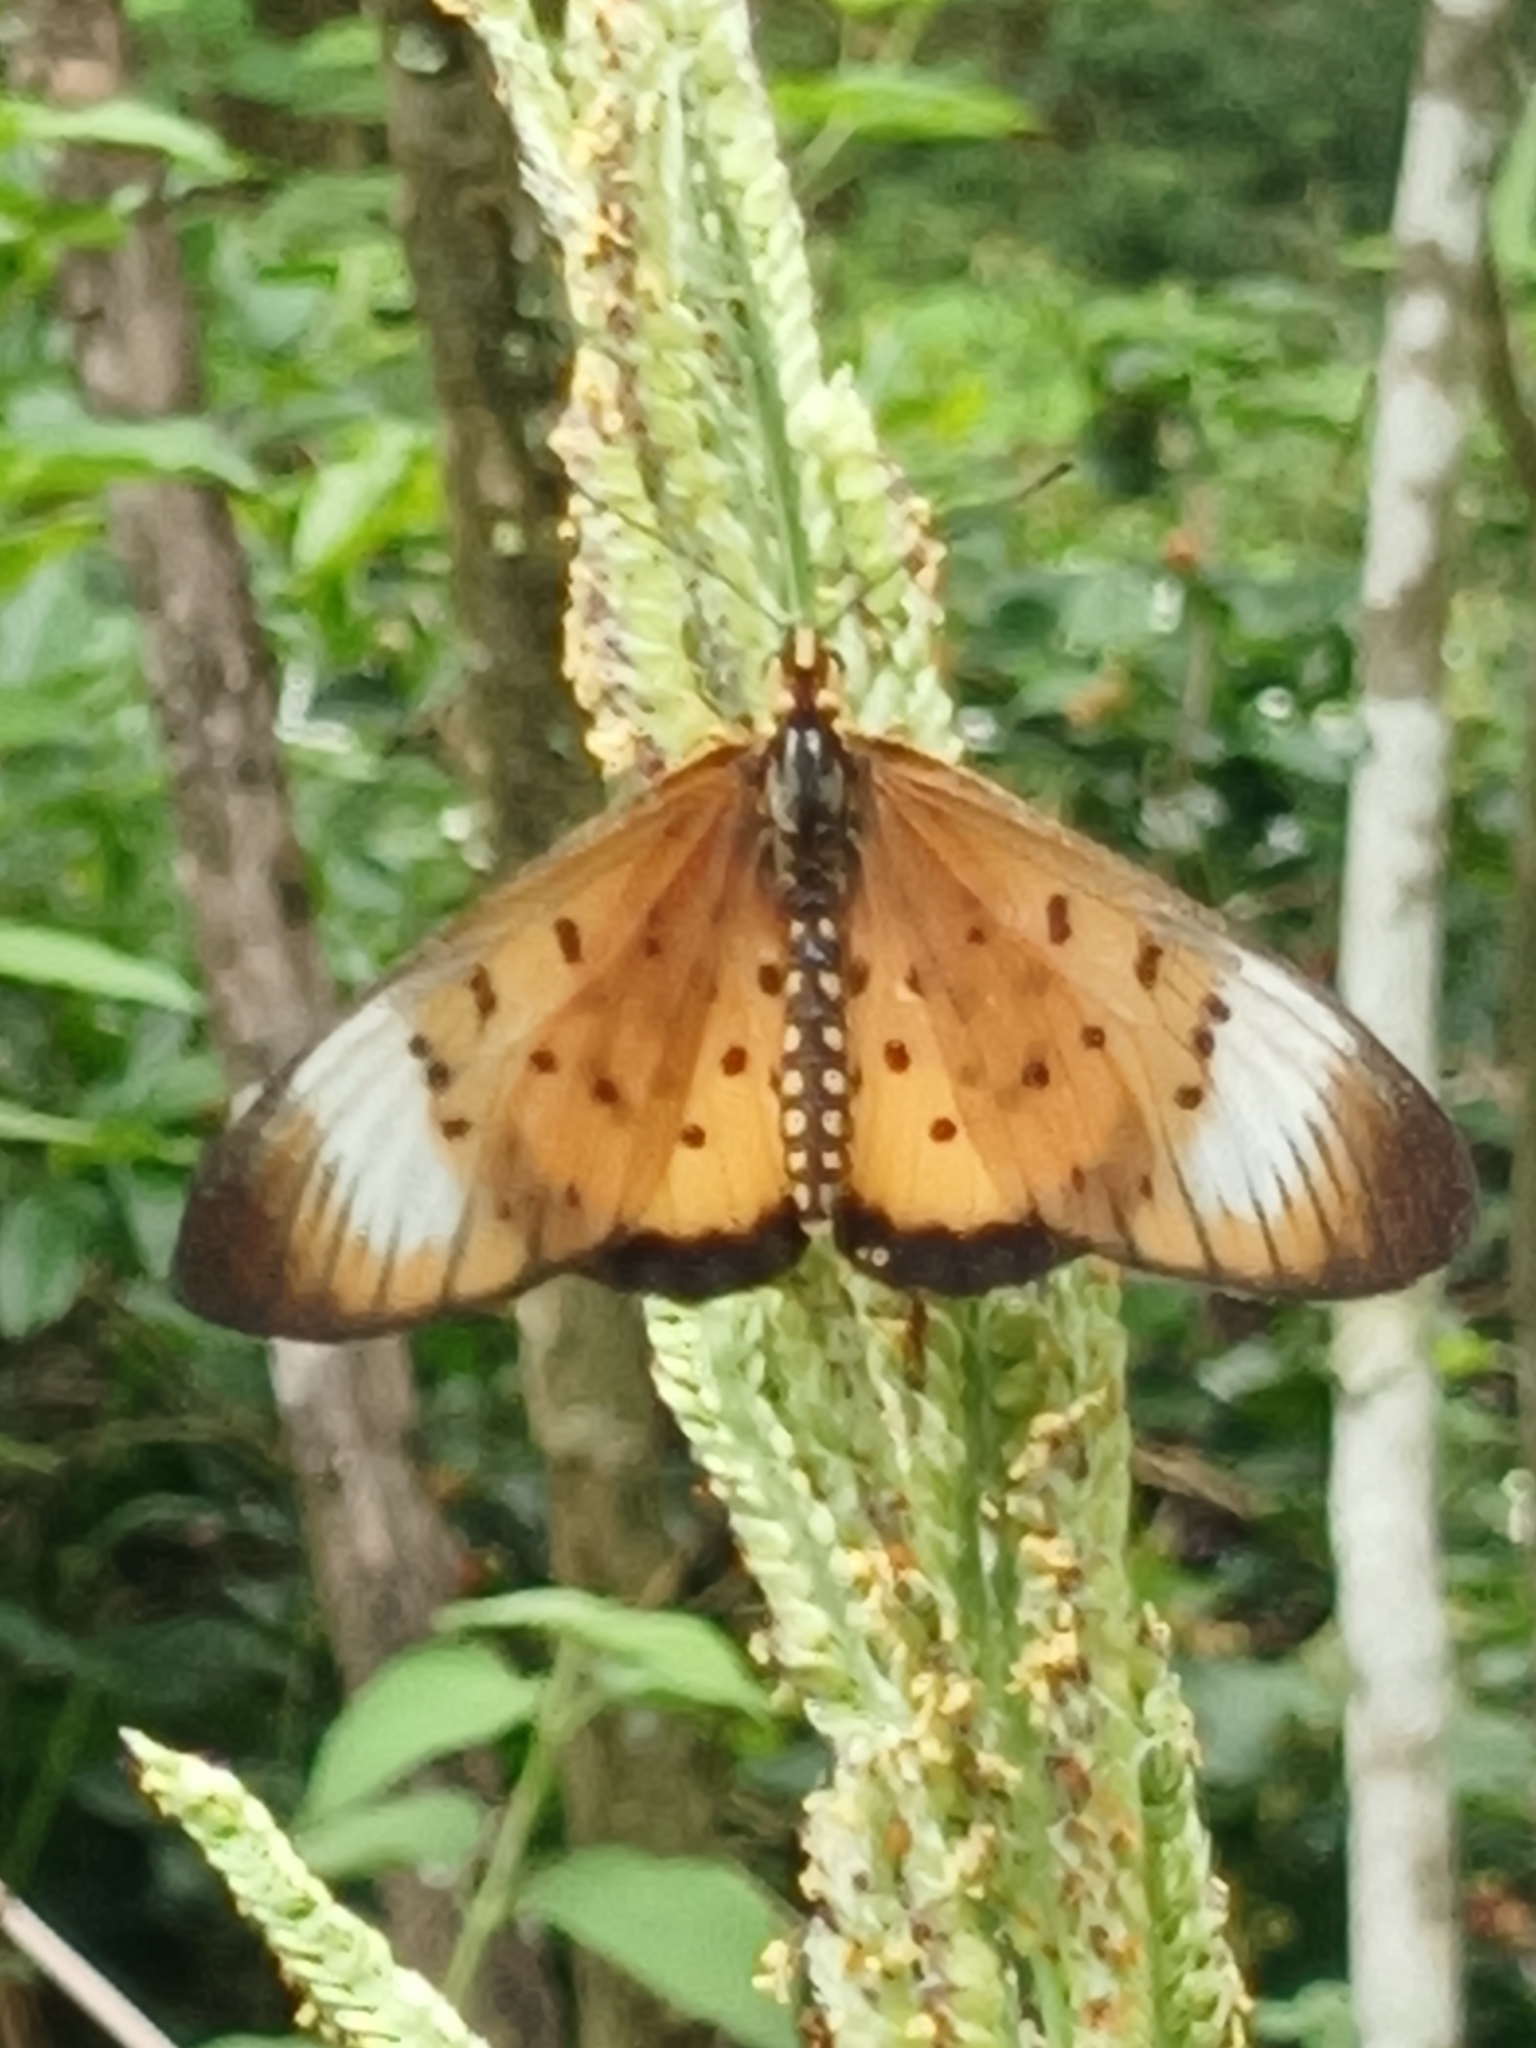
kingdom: Animalia
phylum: Arthropoda
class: Insecta
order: Lepidoptera
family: Nymphalidae
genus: Stephenia
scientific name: Stephenia
